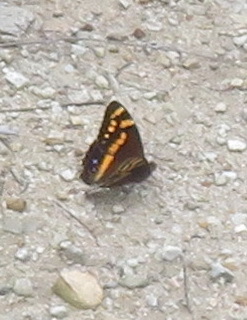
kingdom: Animalia
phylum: Arthropoda
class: Insecta
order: Lepidoptera
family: Nymphalidae
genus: Meneris
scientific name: Meneris Aeropetes tulbaghia
